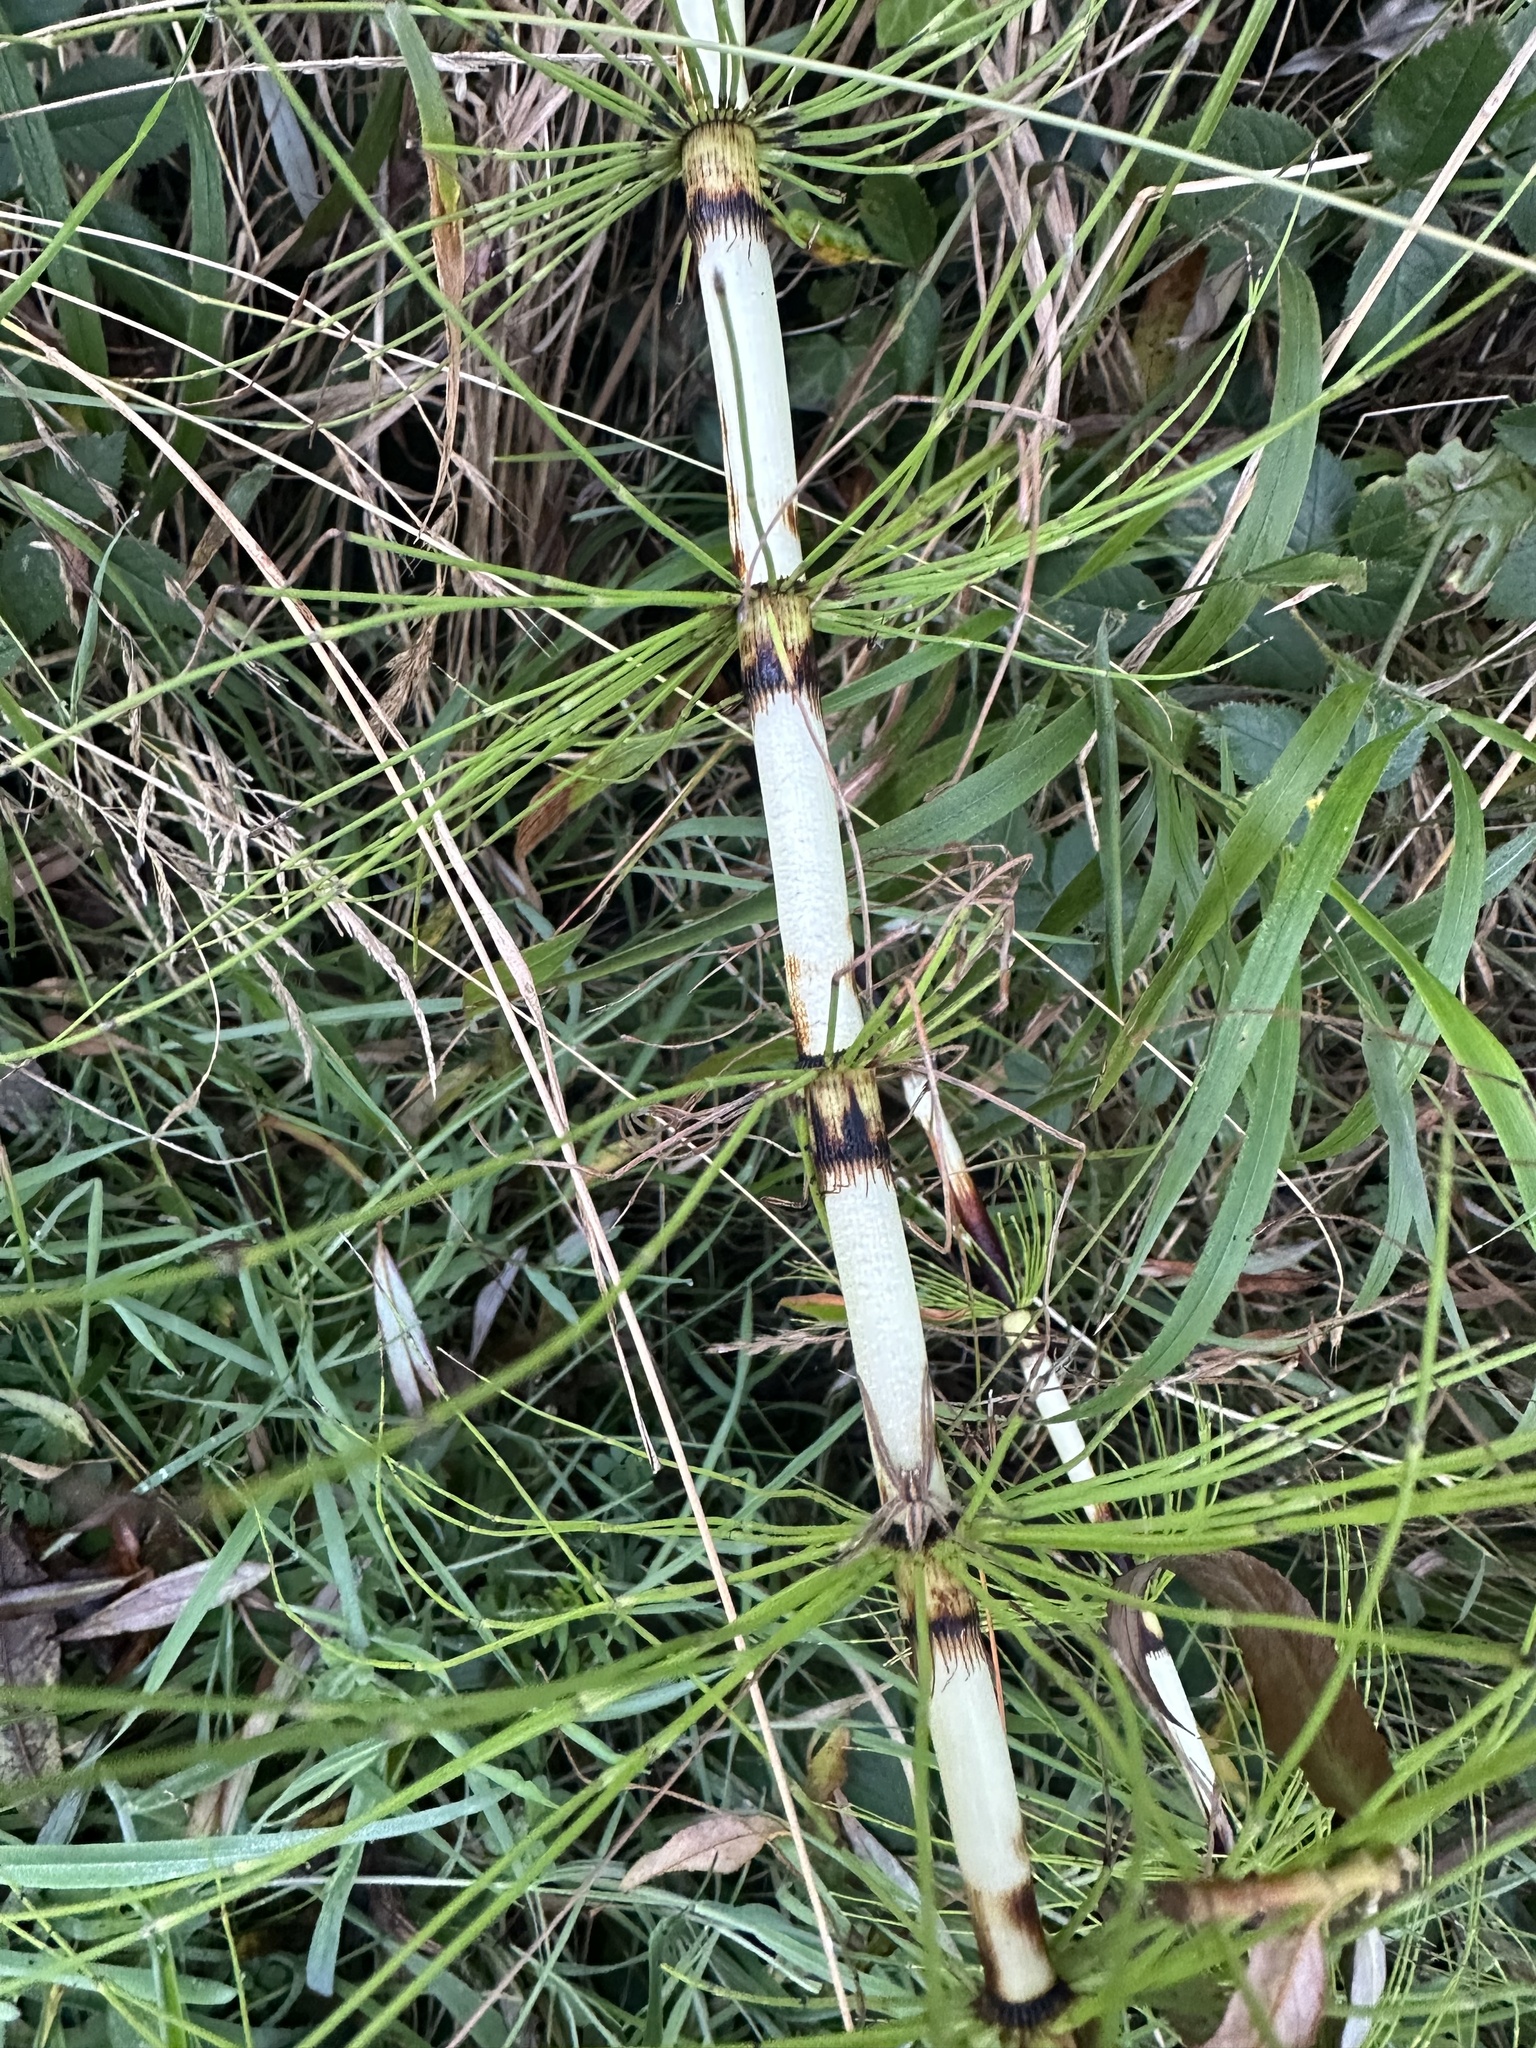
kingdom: Plantae
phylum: Tracheophyta
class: Polypodiopsida
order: Equisetales
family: Equisetaceae
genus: Equisetum
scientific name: Equisetum telmateia
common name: Great horsetail
